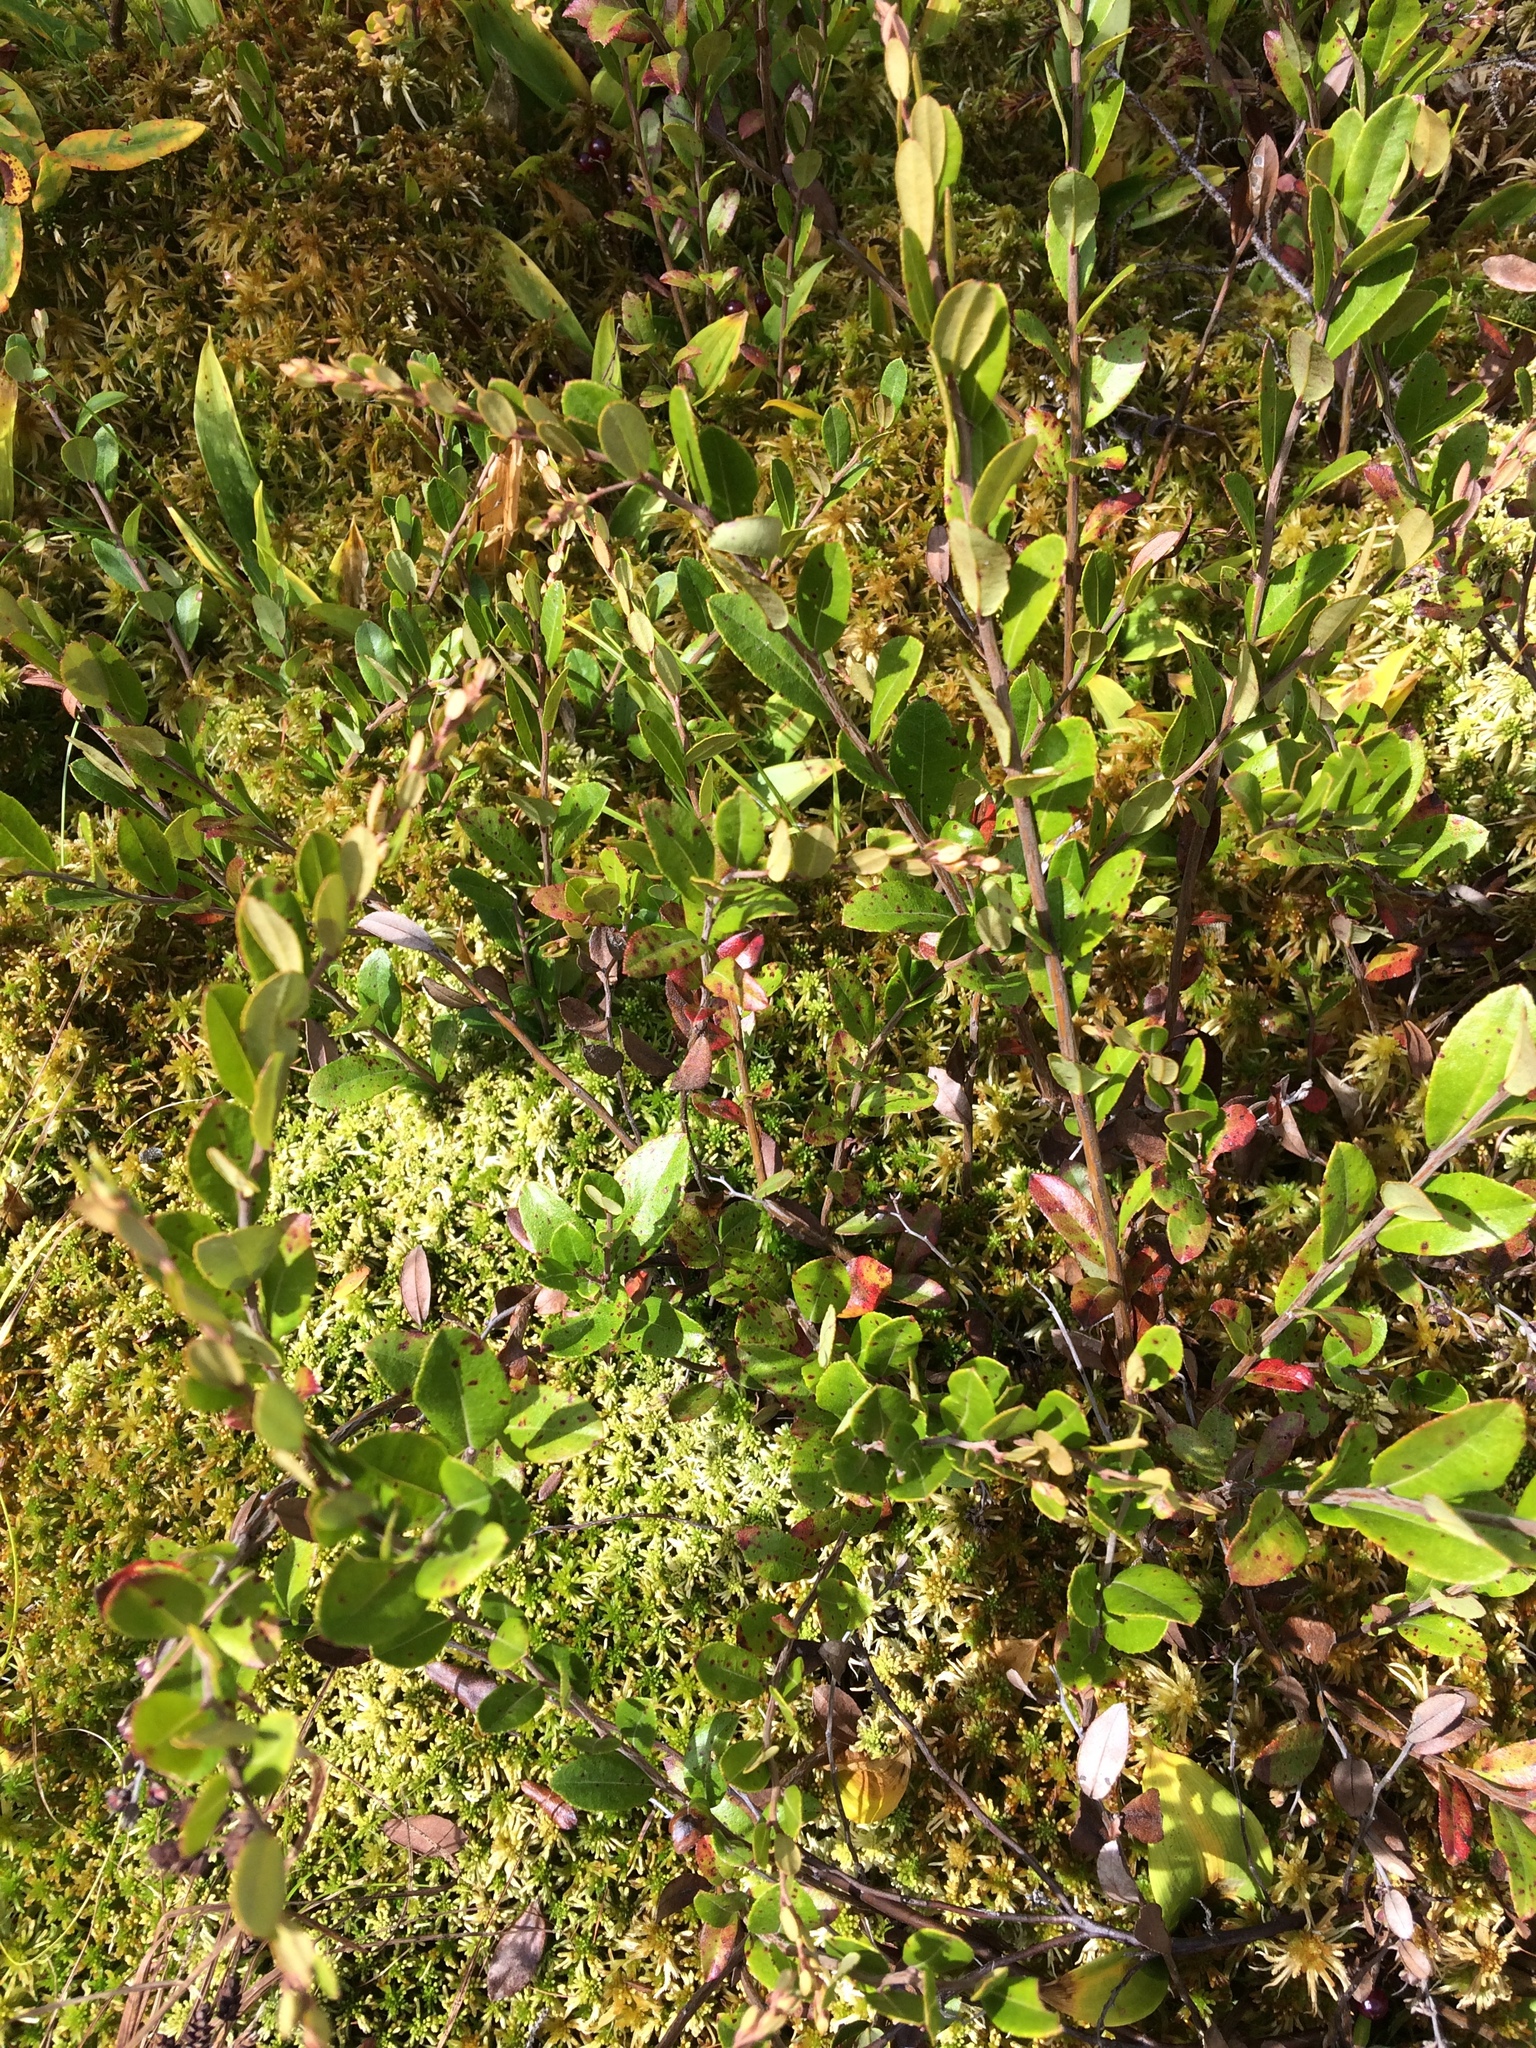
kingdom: Plantae
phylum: Tracheophyta
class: Magnoliopsida
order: Ericales
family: Ericaceae
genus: Chamaedaphne
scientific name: Chamaedaphne calyculata
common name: Leatherleaf
